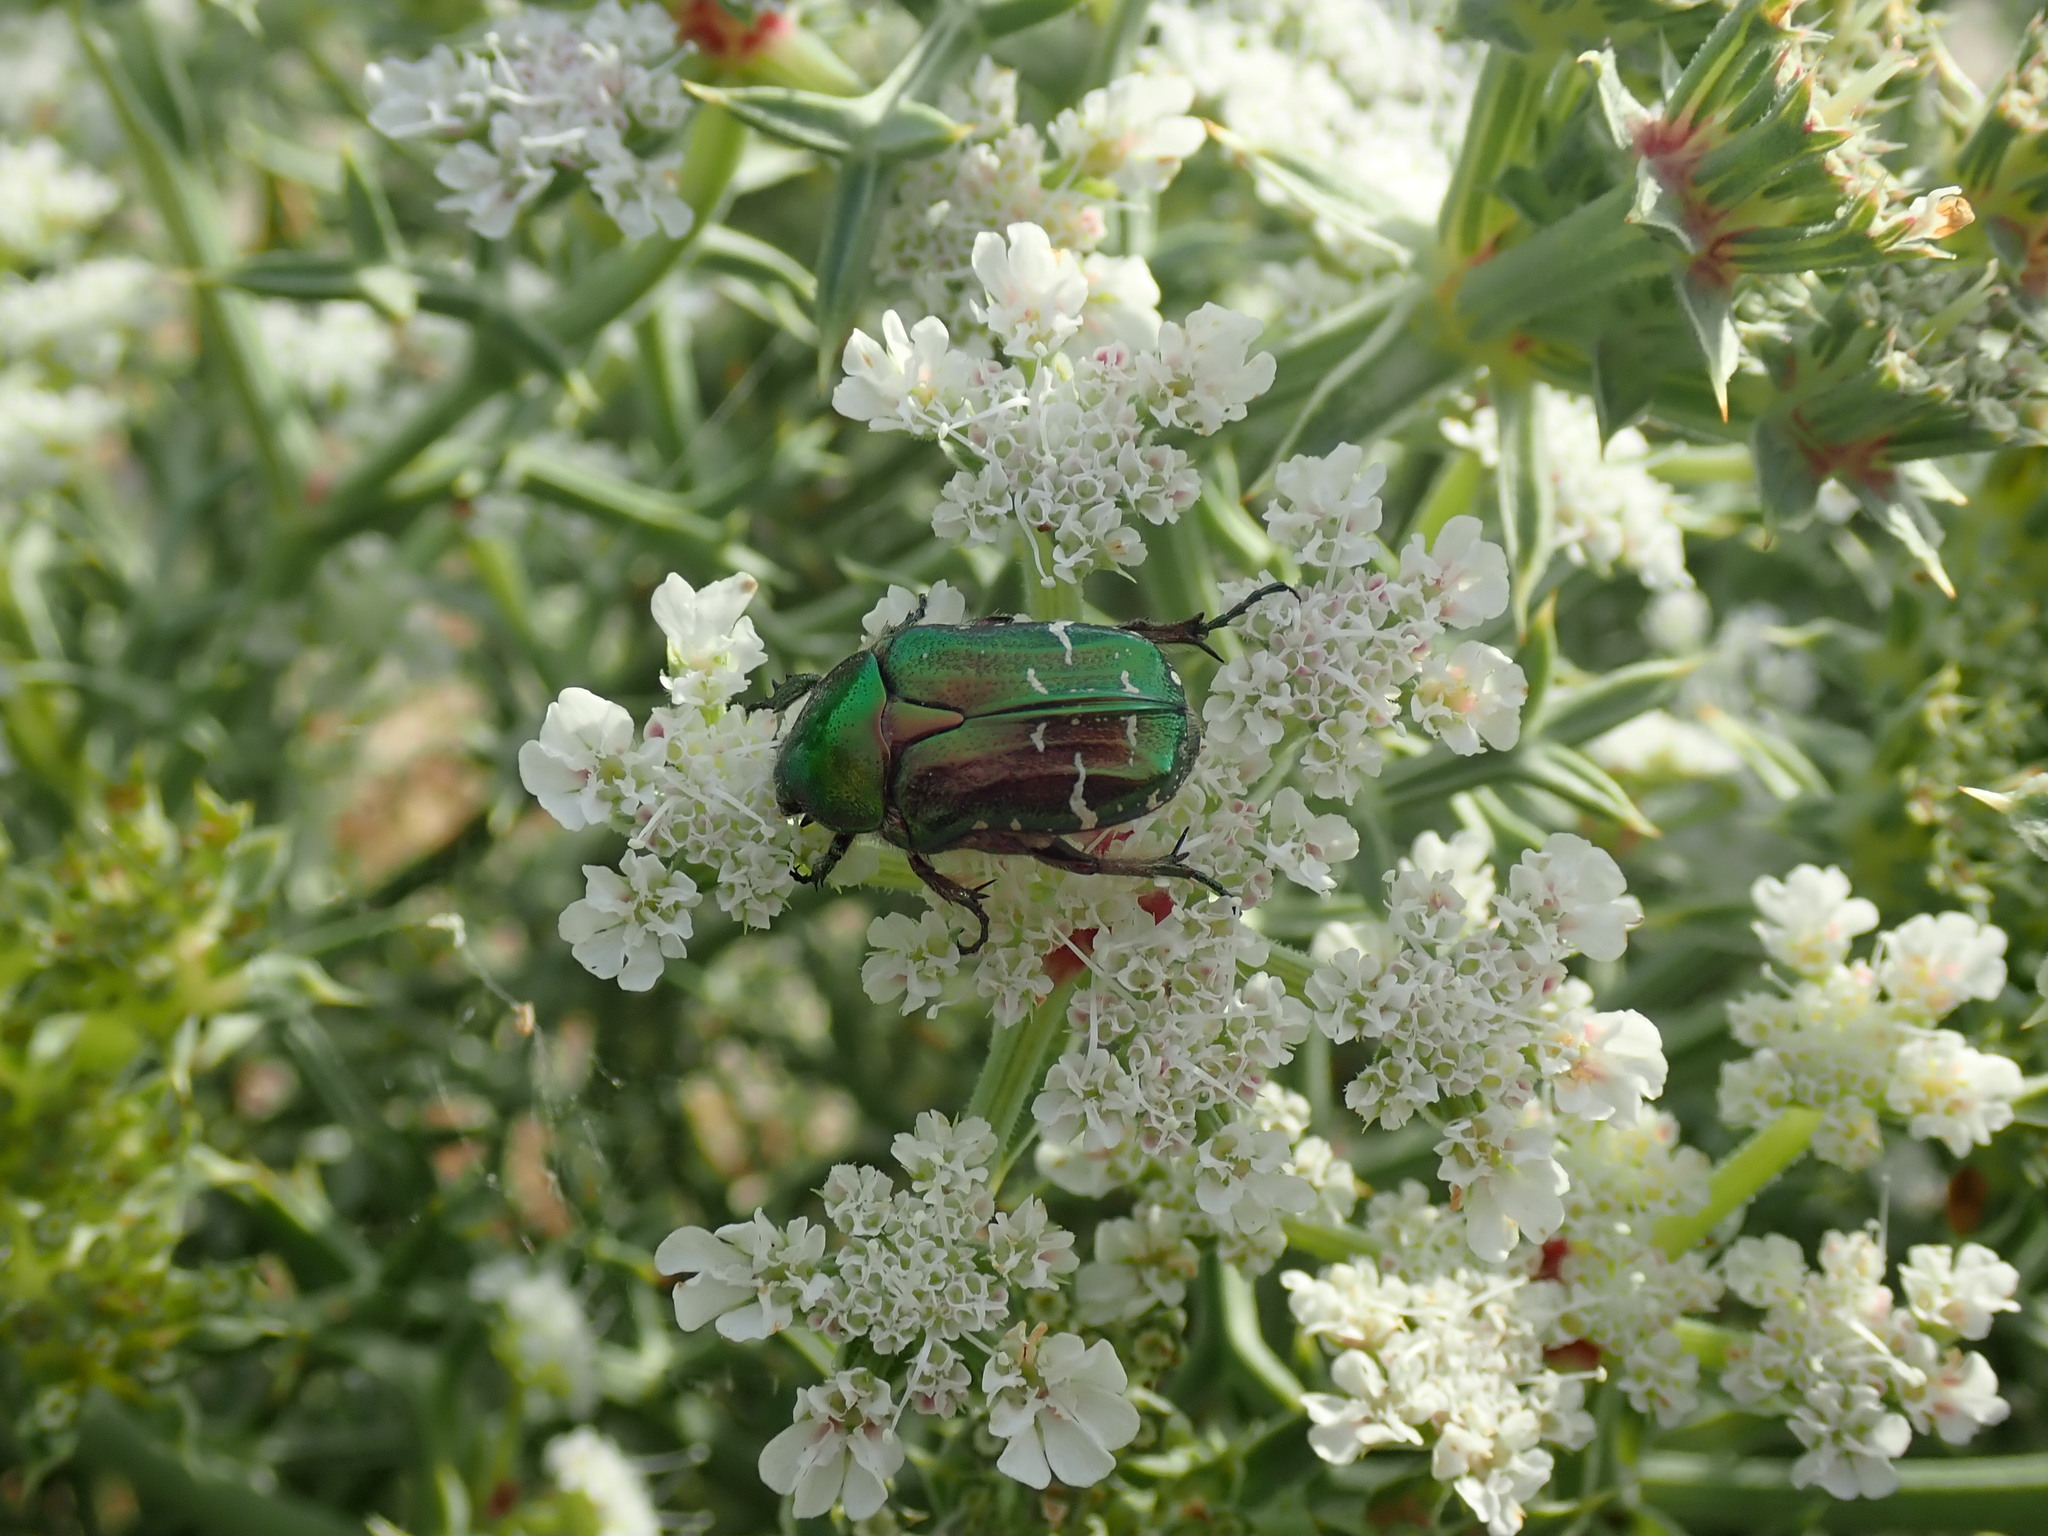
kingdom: Animalia
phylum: Arthropoda
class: Insecta
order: Coleoptera
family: Scarabaeidae
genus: Cetonia
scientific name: Cetonia aurata
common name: Rose chafer
